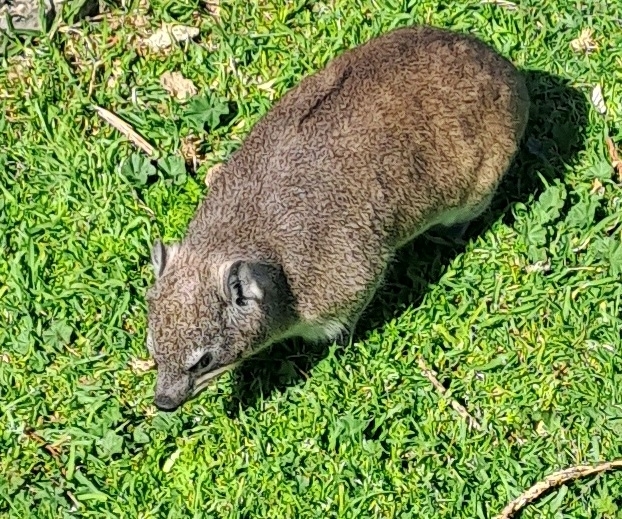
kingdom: Animalia
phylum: Chordata
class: Mammalia
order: Hyracoidea
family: Procaviidae
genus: Procavia
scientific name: Procavia capensis
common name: Rock hyrax
